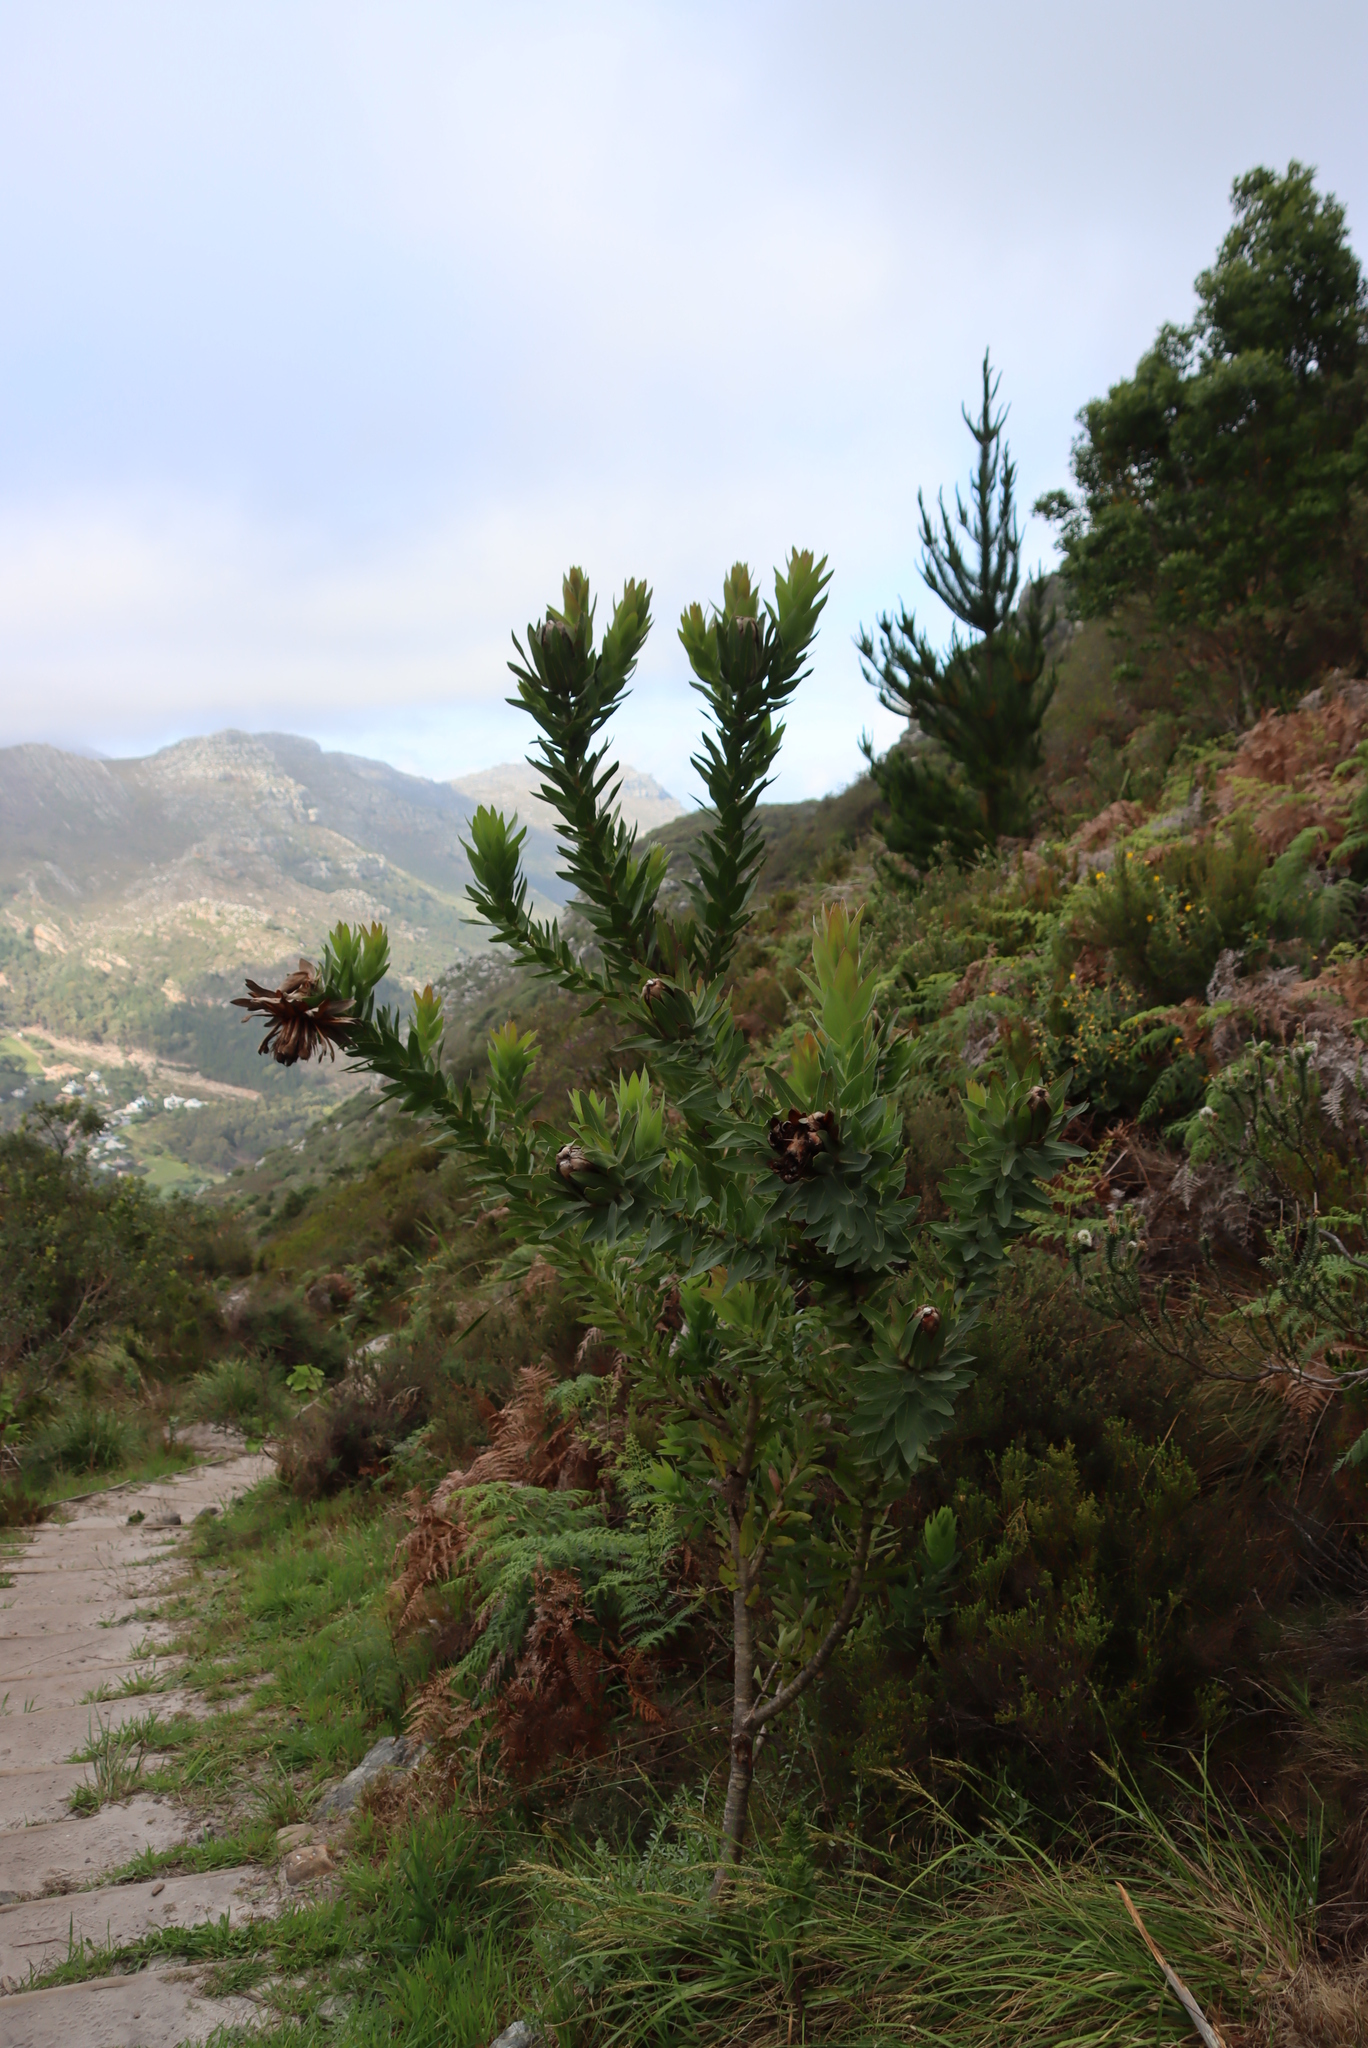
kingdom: Plantae
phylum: Tracheophyta
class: Magnoliopsida
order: Proteales
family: Proteaceae
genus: Protea
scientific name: Protea coronata
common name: Green sugarbush
